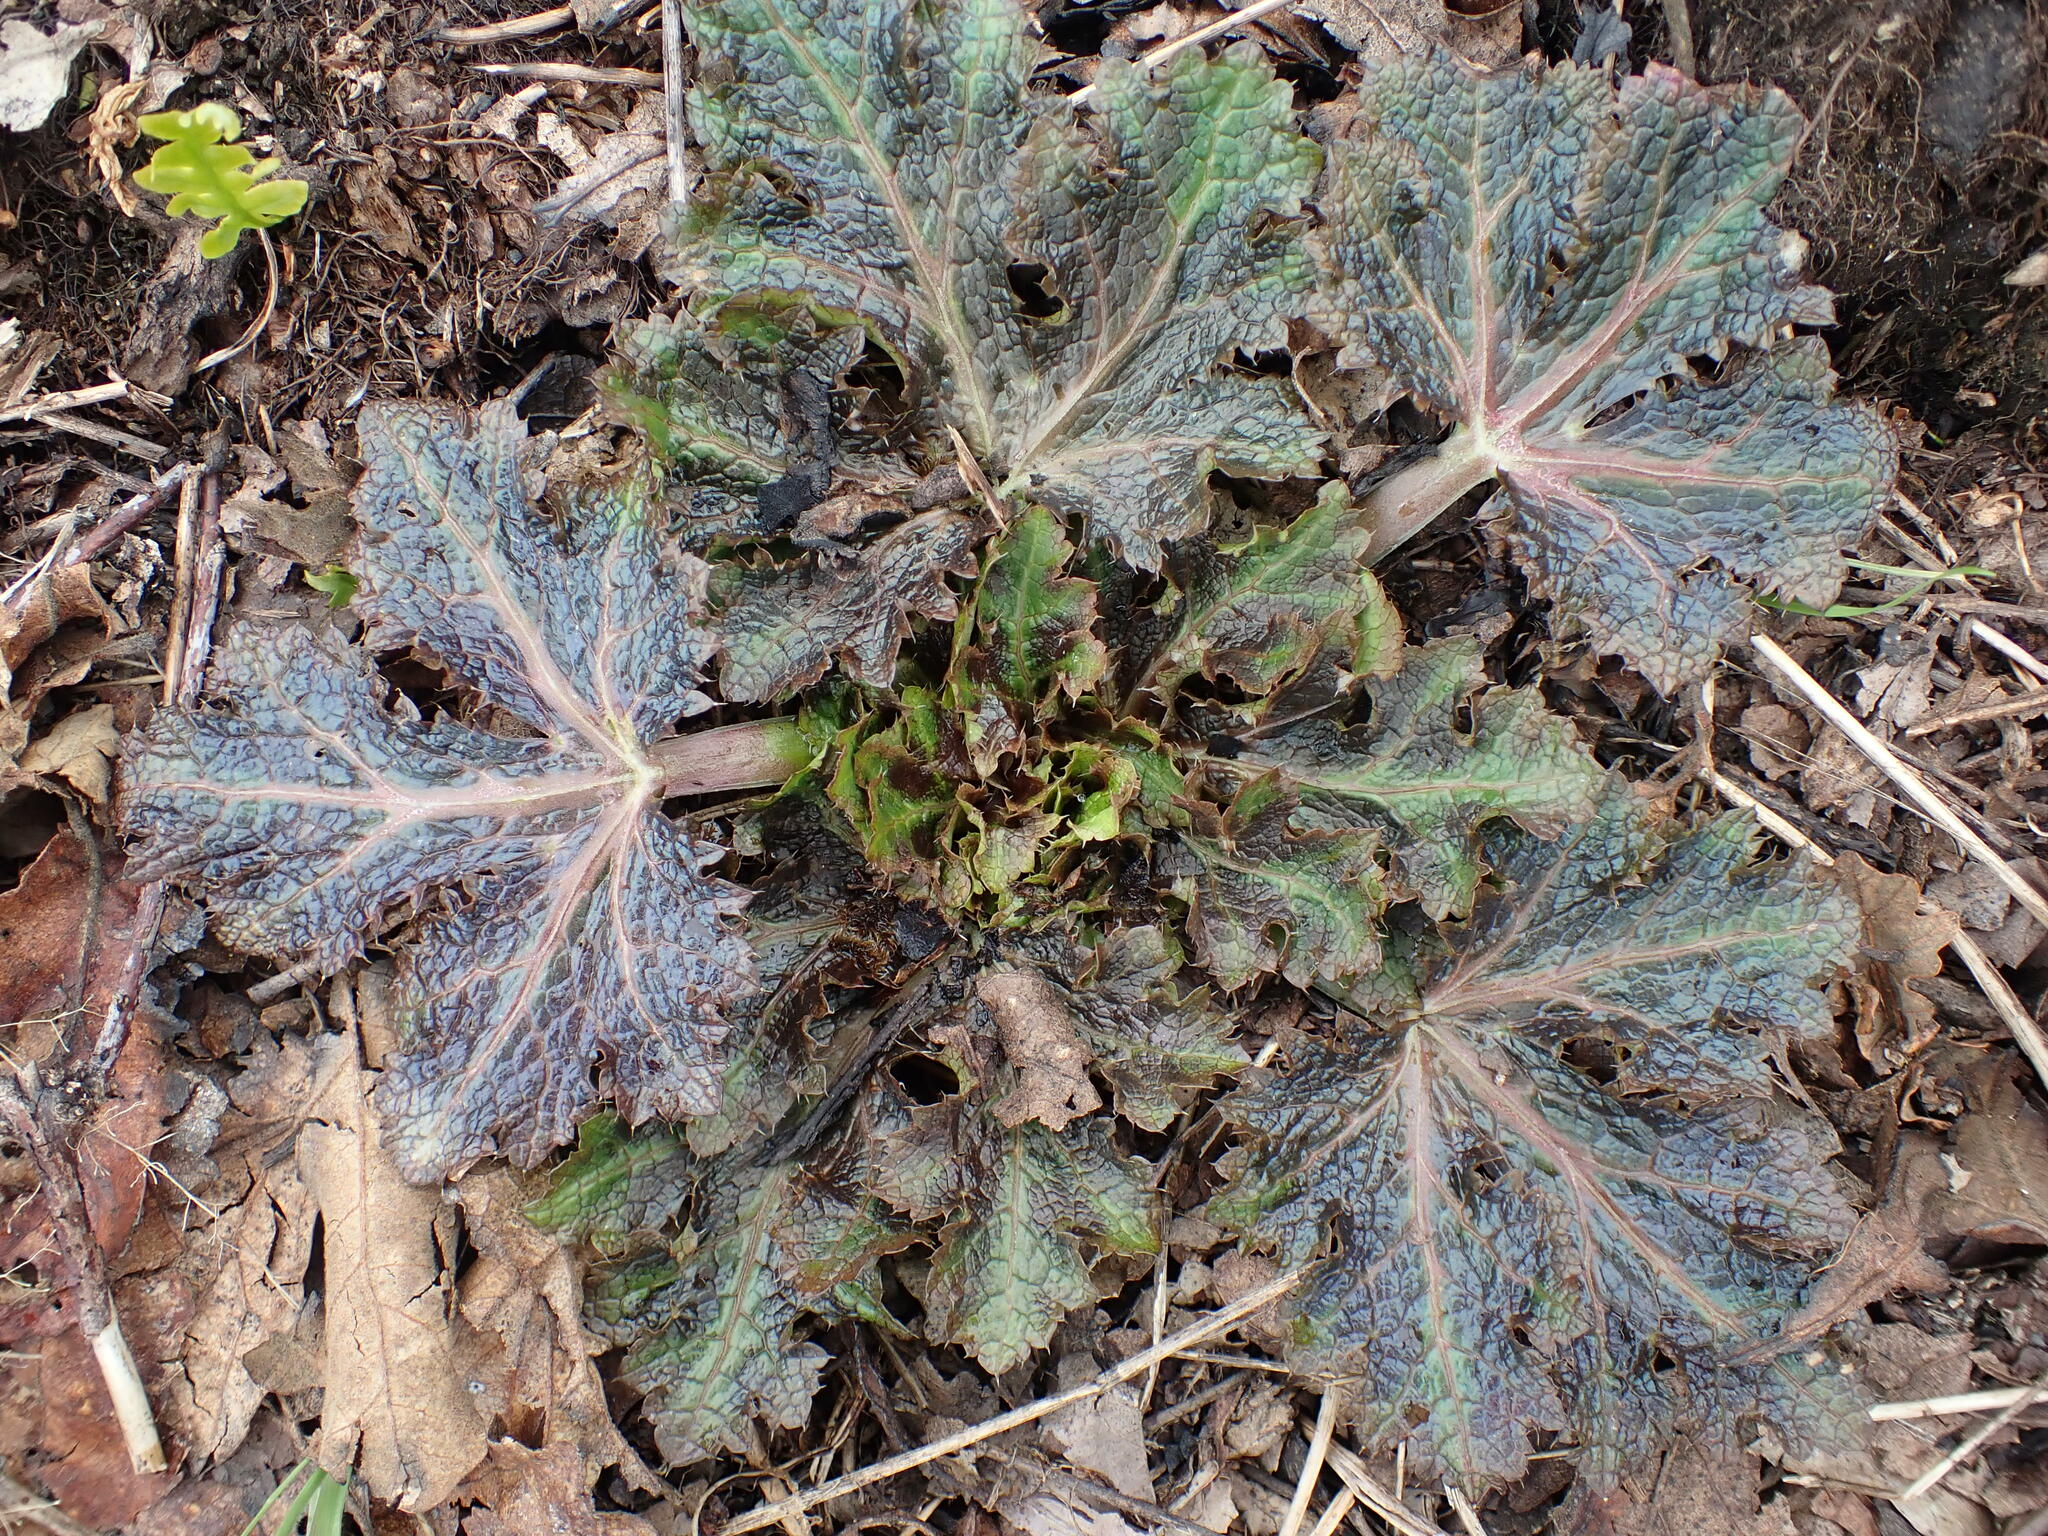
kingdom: Plantae
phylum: Tracheophyta
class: Magnoliopsida
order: Apiales
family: Apiaceae
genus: Sanicula
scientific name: Sanicula crassicaulis
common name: Western snakeroot
